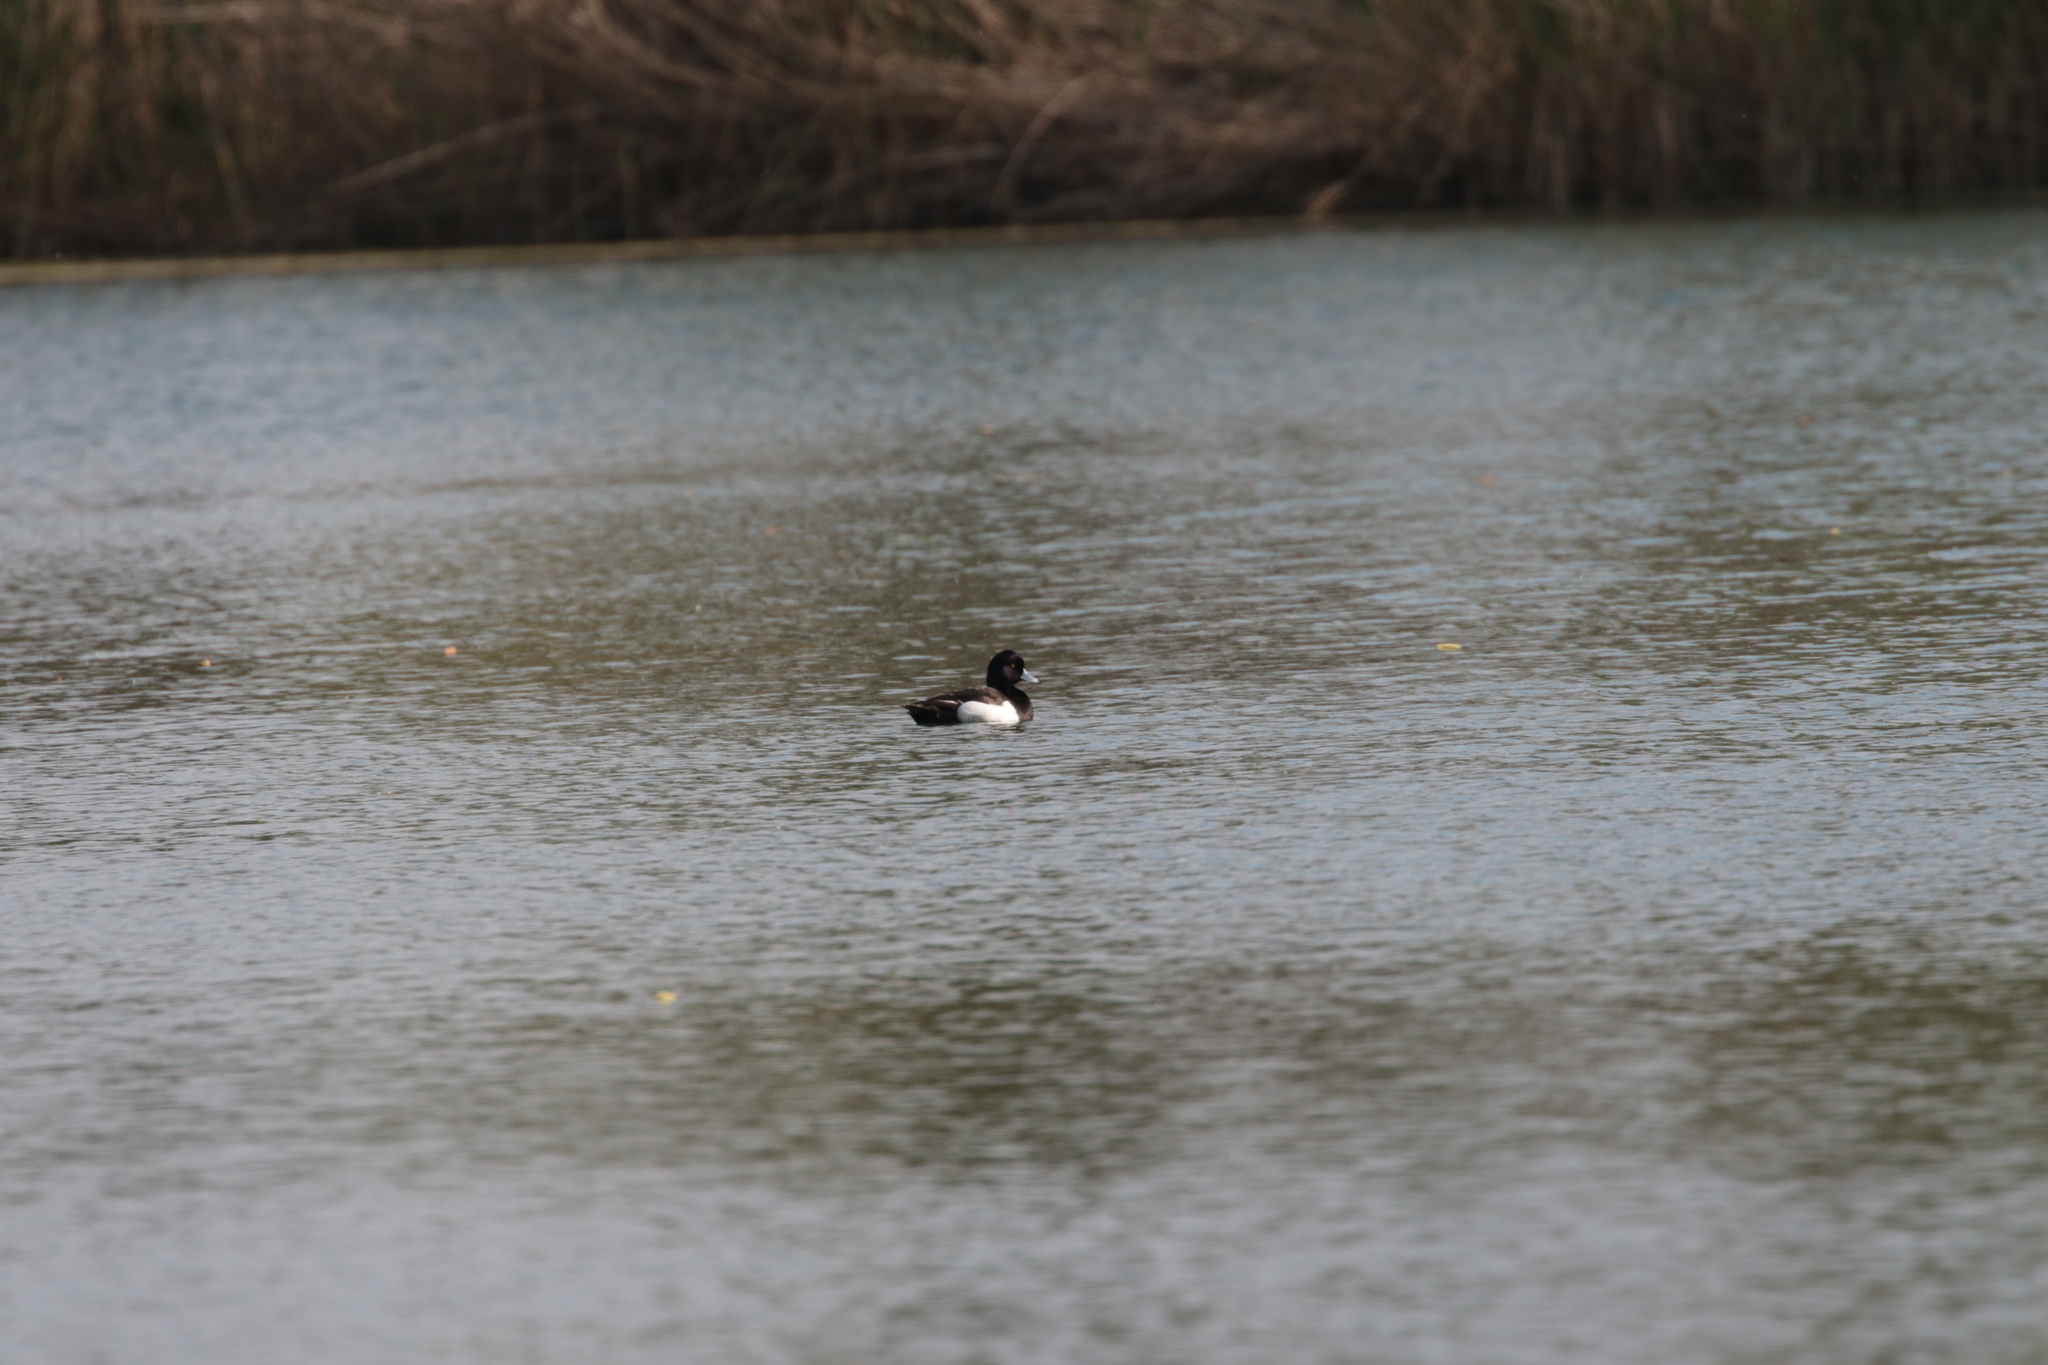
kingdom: Animalia
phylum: Chordata
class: Aves
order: Anseriformes
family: Anatidae
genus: Aythya
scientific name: Aythya fuligula
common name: Tufted duck
